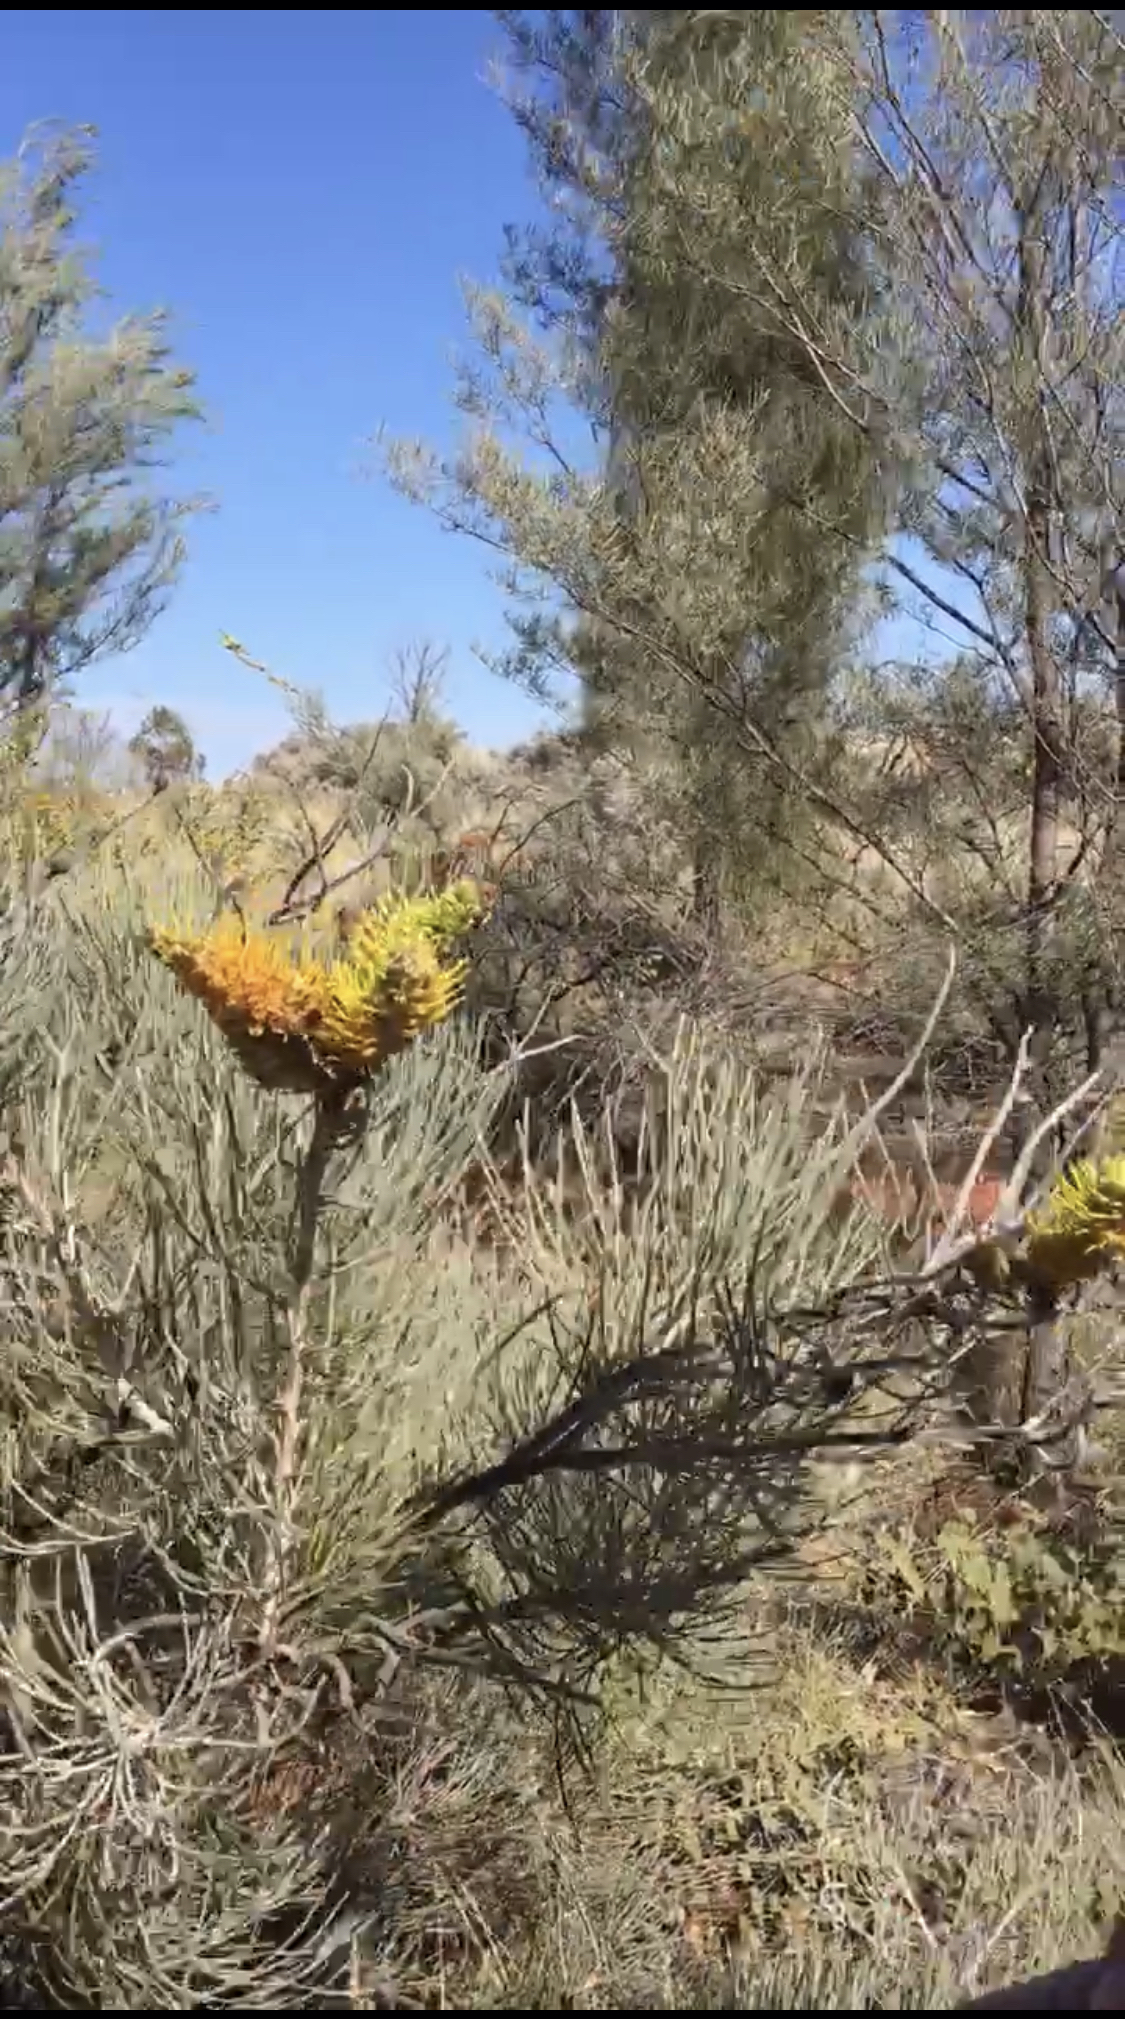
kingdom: Plantae
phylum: Tracheophyta
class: Magnoliopsida
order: Proteales
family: Proteaceae
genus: Grevillea
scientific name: Grevillea eriostachya
